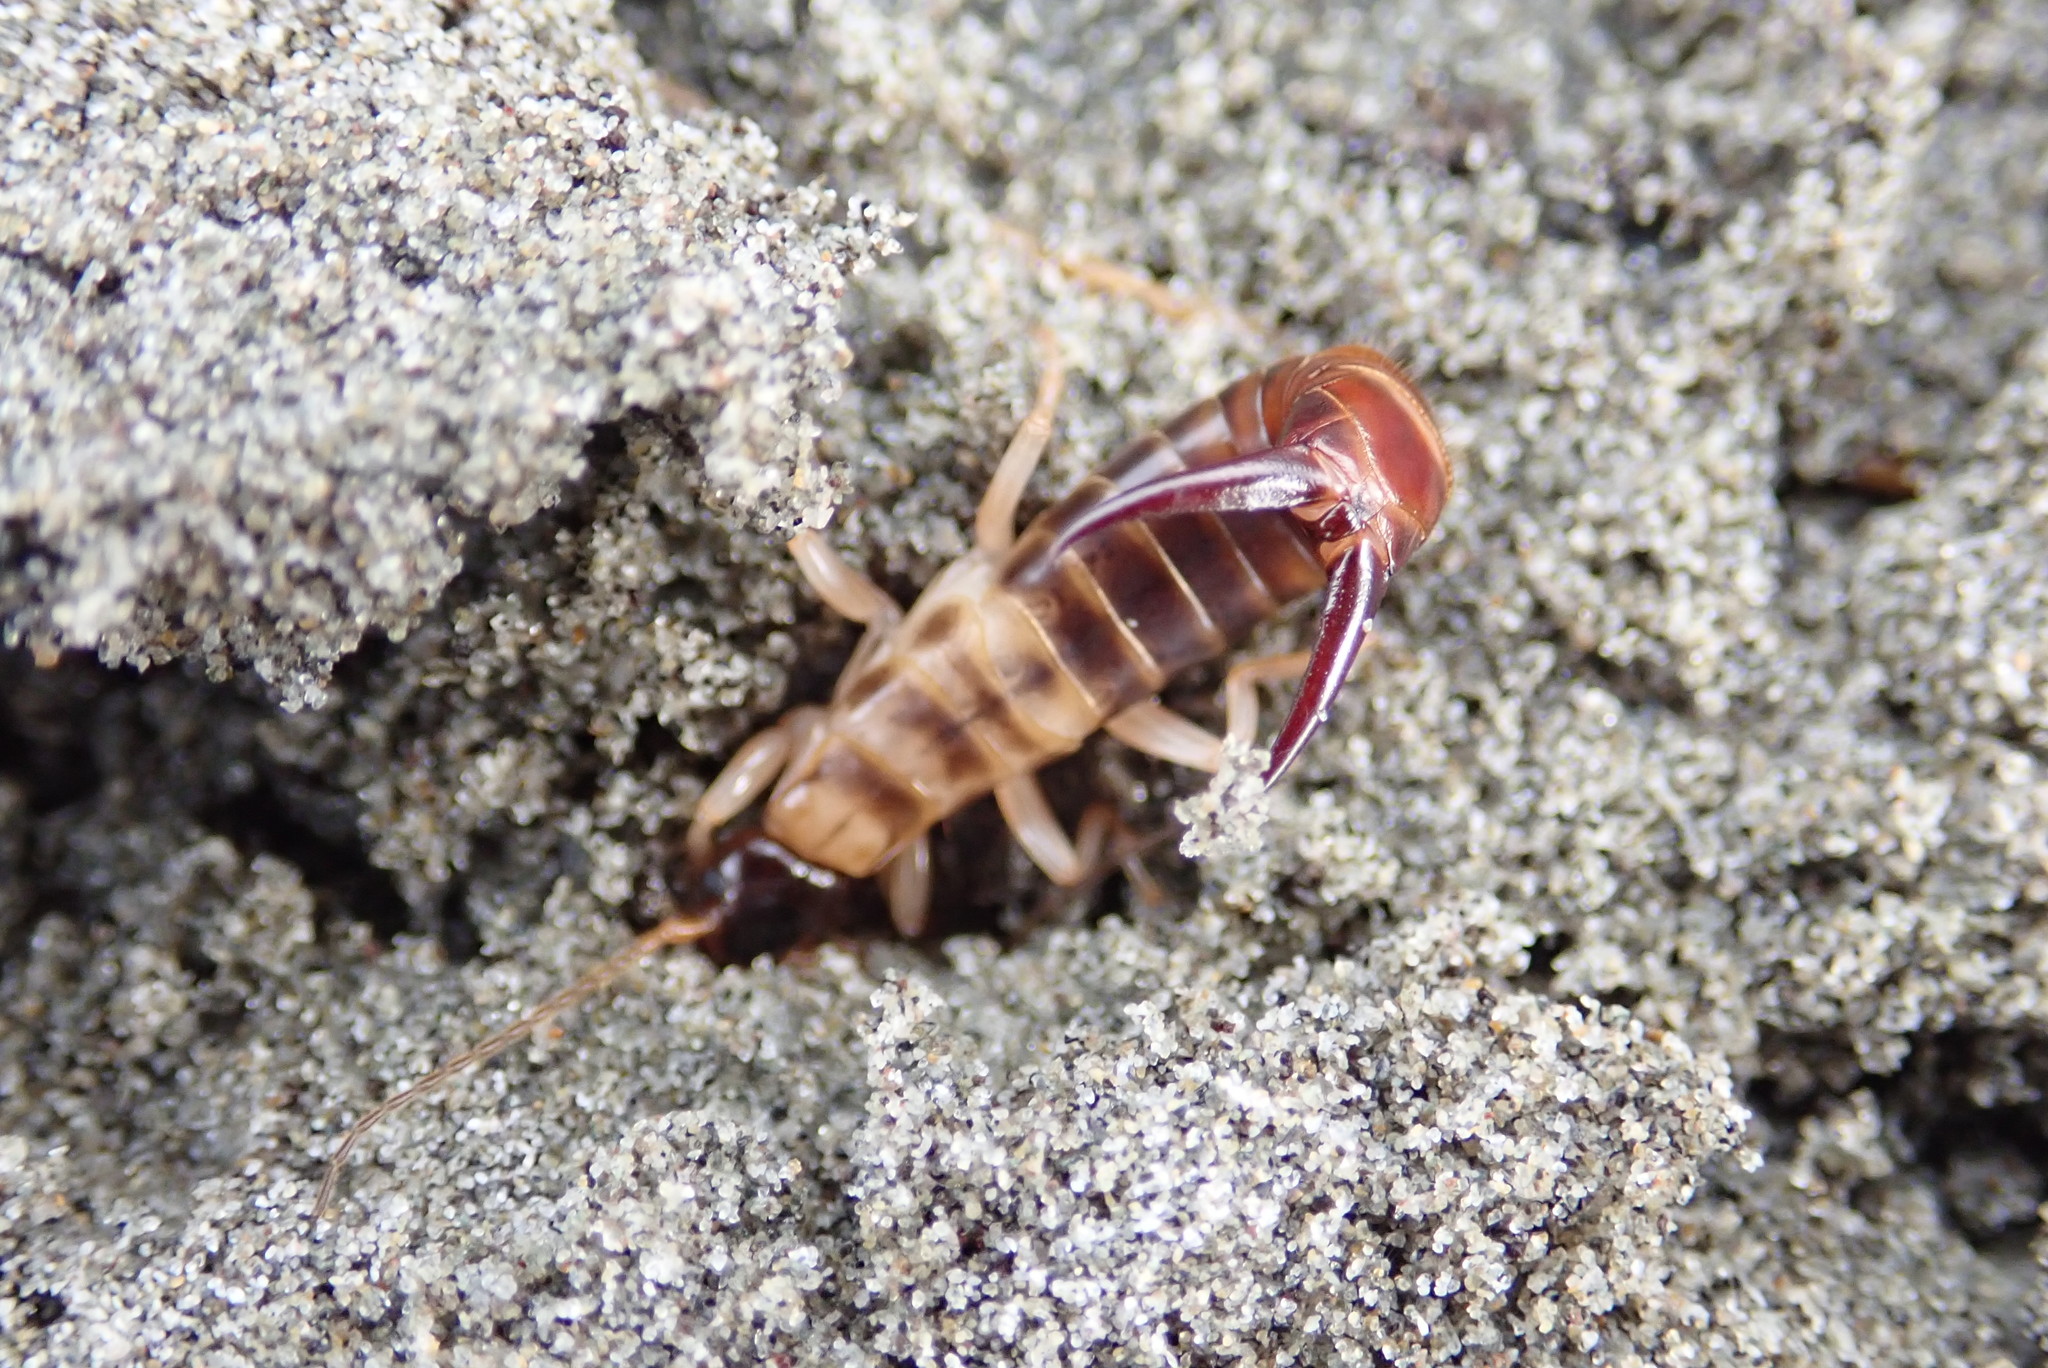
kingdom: Animalia
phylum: Arthropoda
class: Insecta
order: Dermaptera
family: Anisolabididae
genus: Anisolabis
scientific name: Anisolabis littorea
